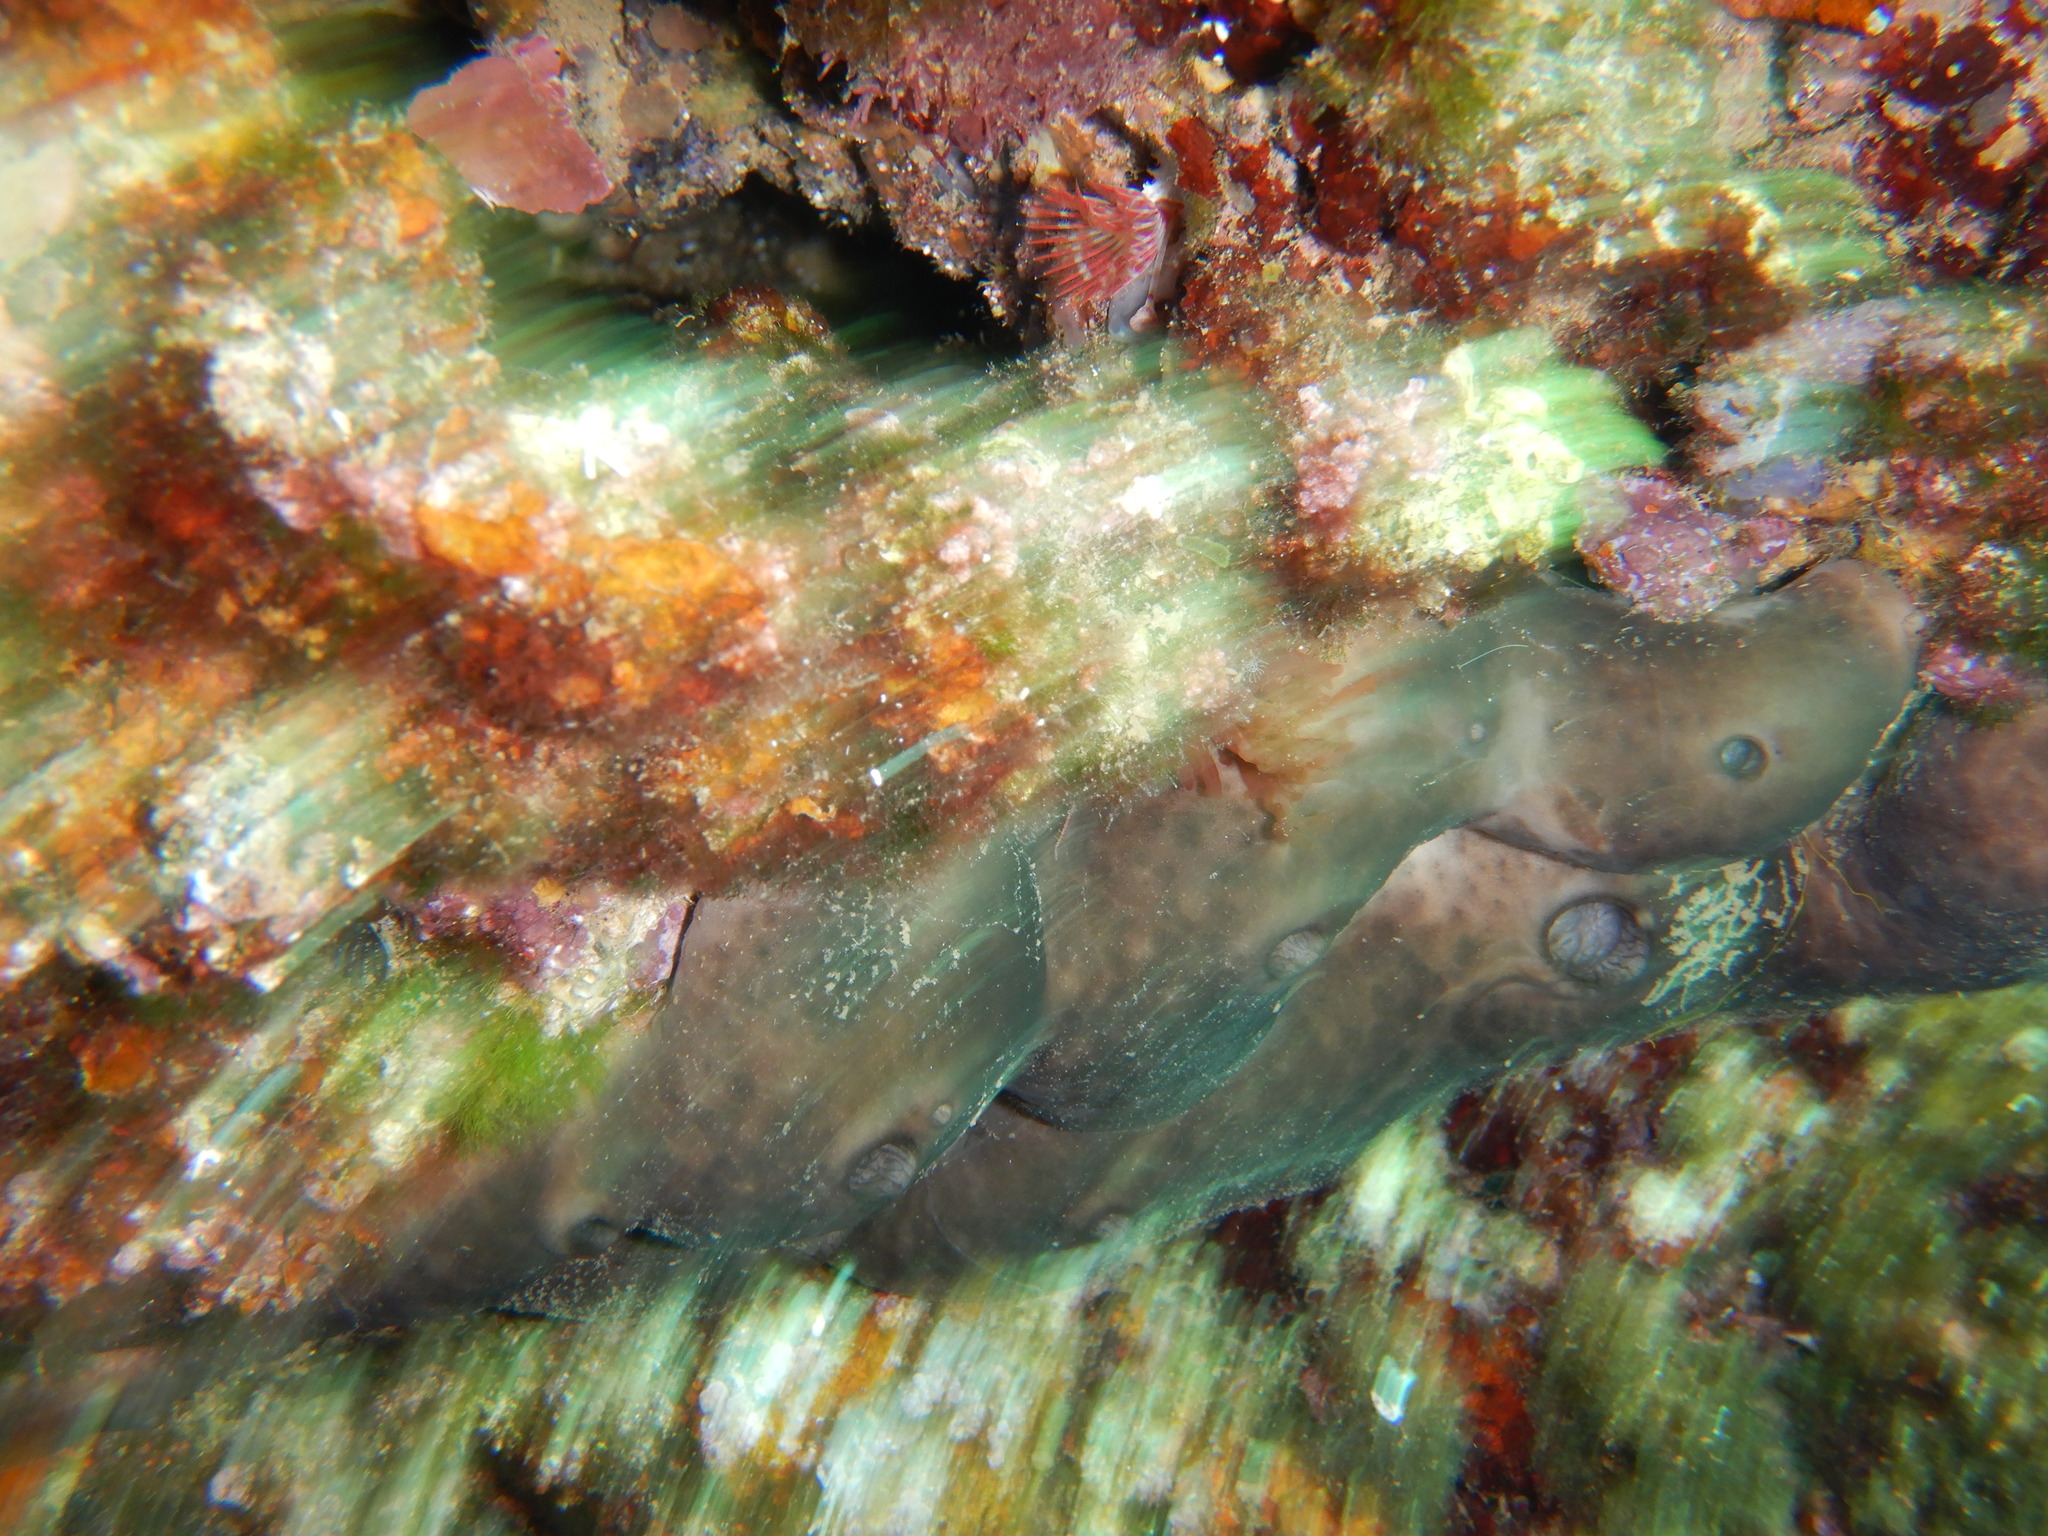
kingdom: Animalia
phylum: Porifera
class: Demospongiae
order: Chondrosiida
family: Chondrosiidae
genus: Chondrosia
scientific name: Chondrosia reniformis
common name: Chicken liver sponge
